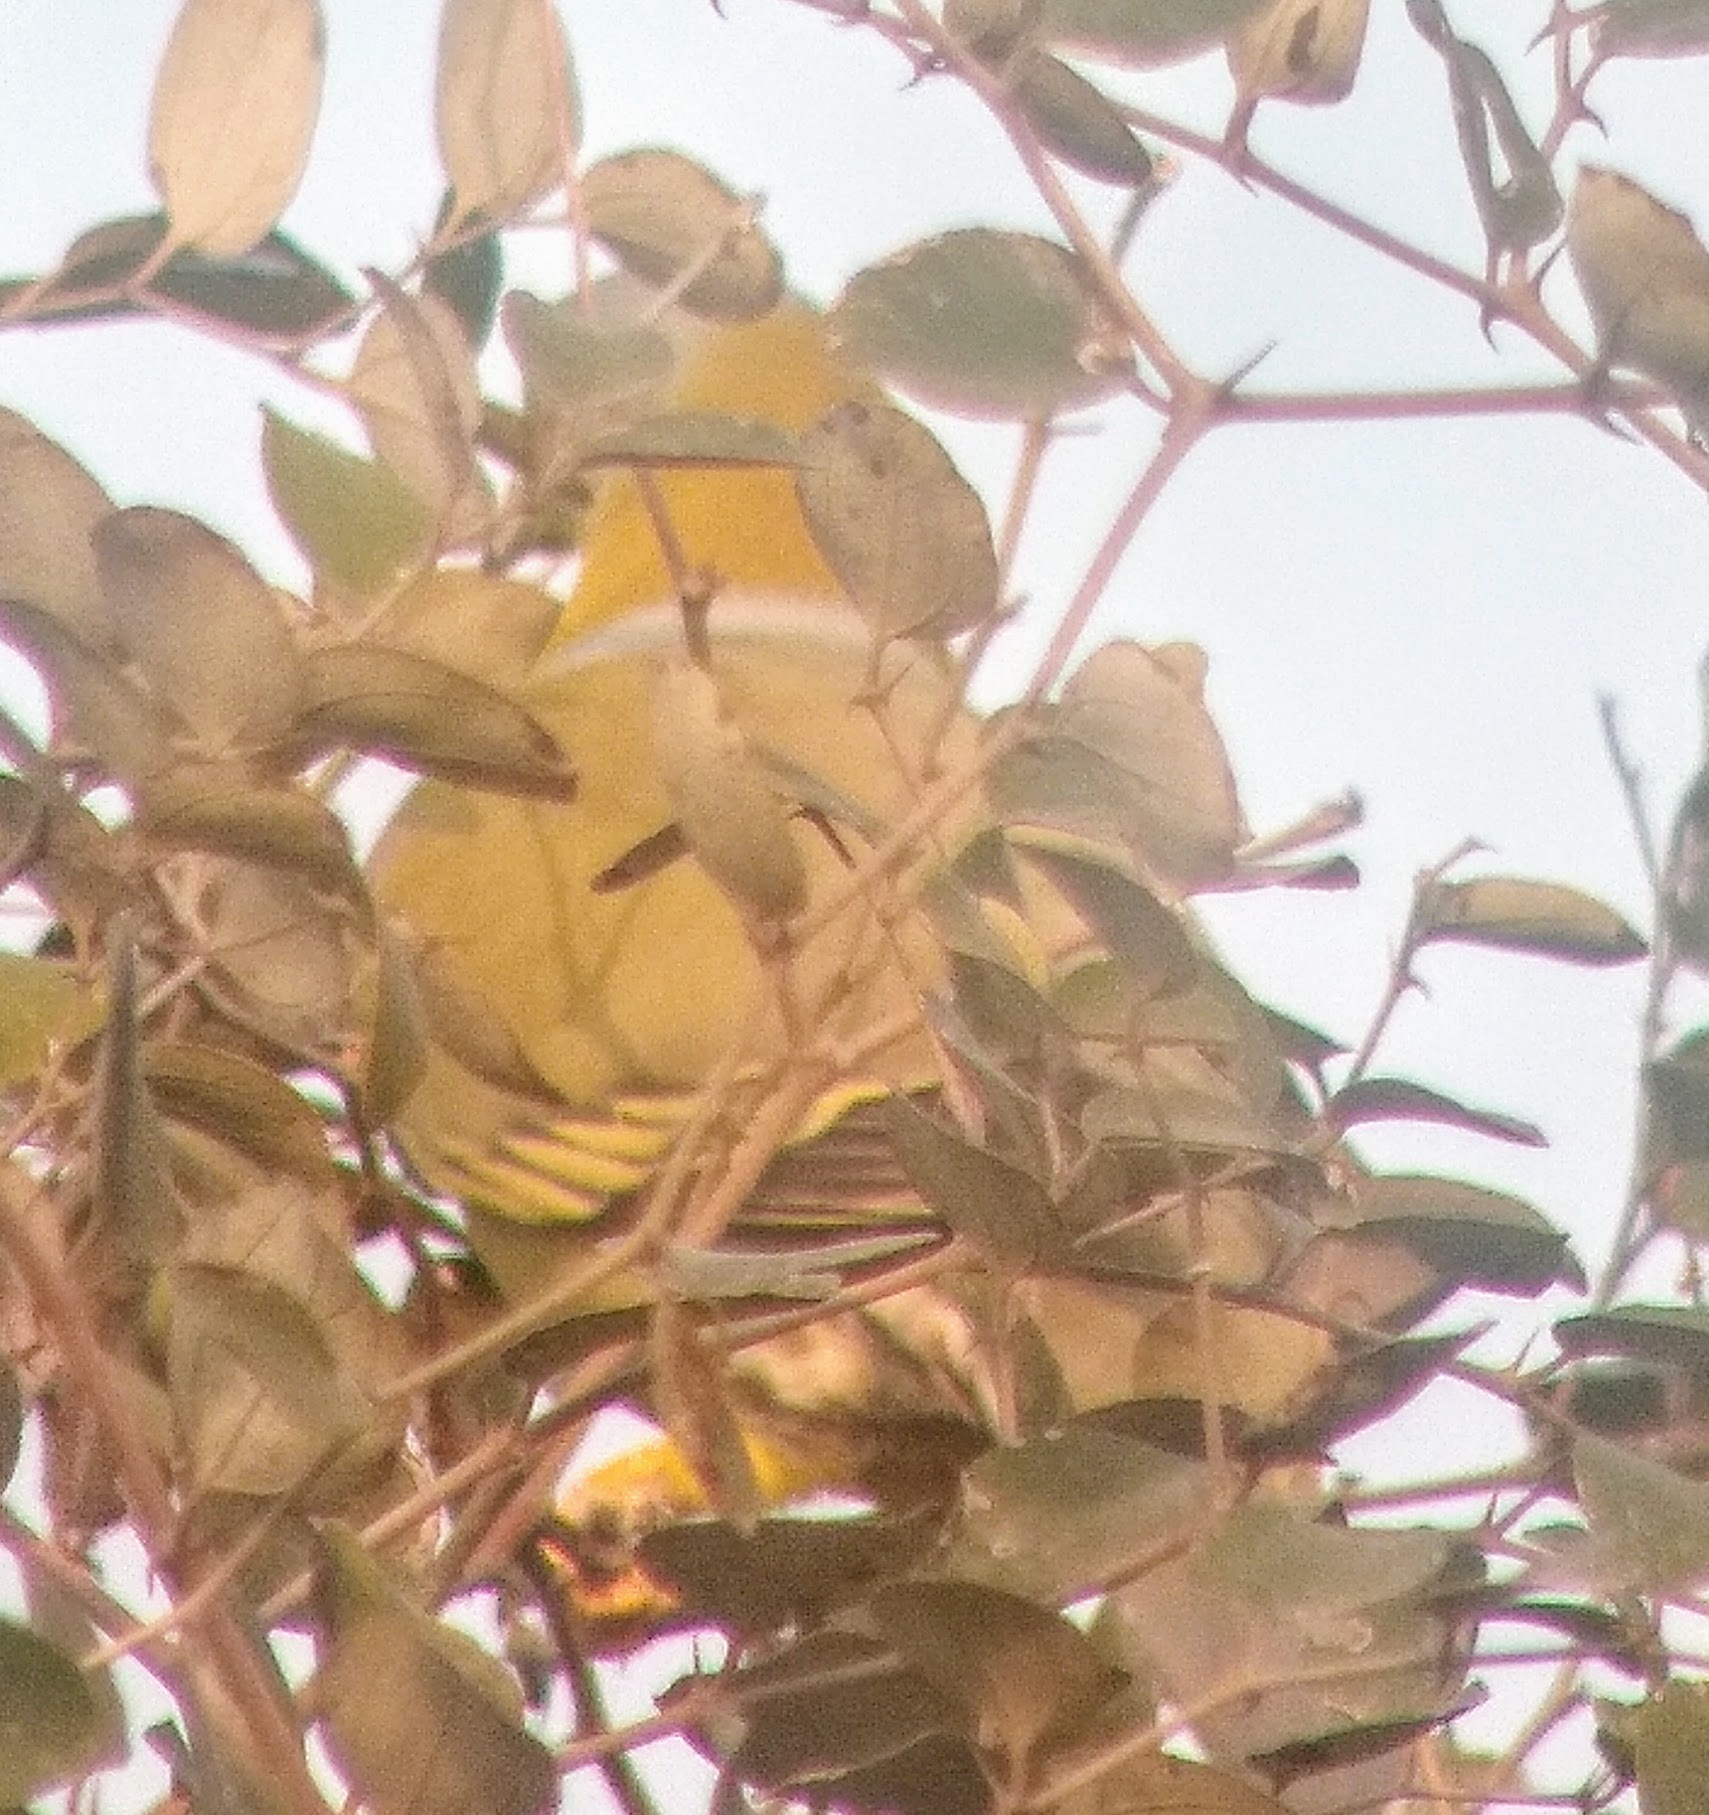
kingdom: Animalia
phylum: Chordata
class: Aves
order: Columbiformes
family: Columbidae
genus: Treron
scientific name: Treron phoenicopterus
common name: Yellow-footed green pigeon
